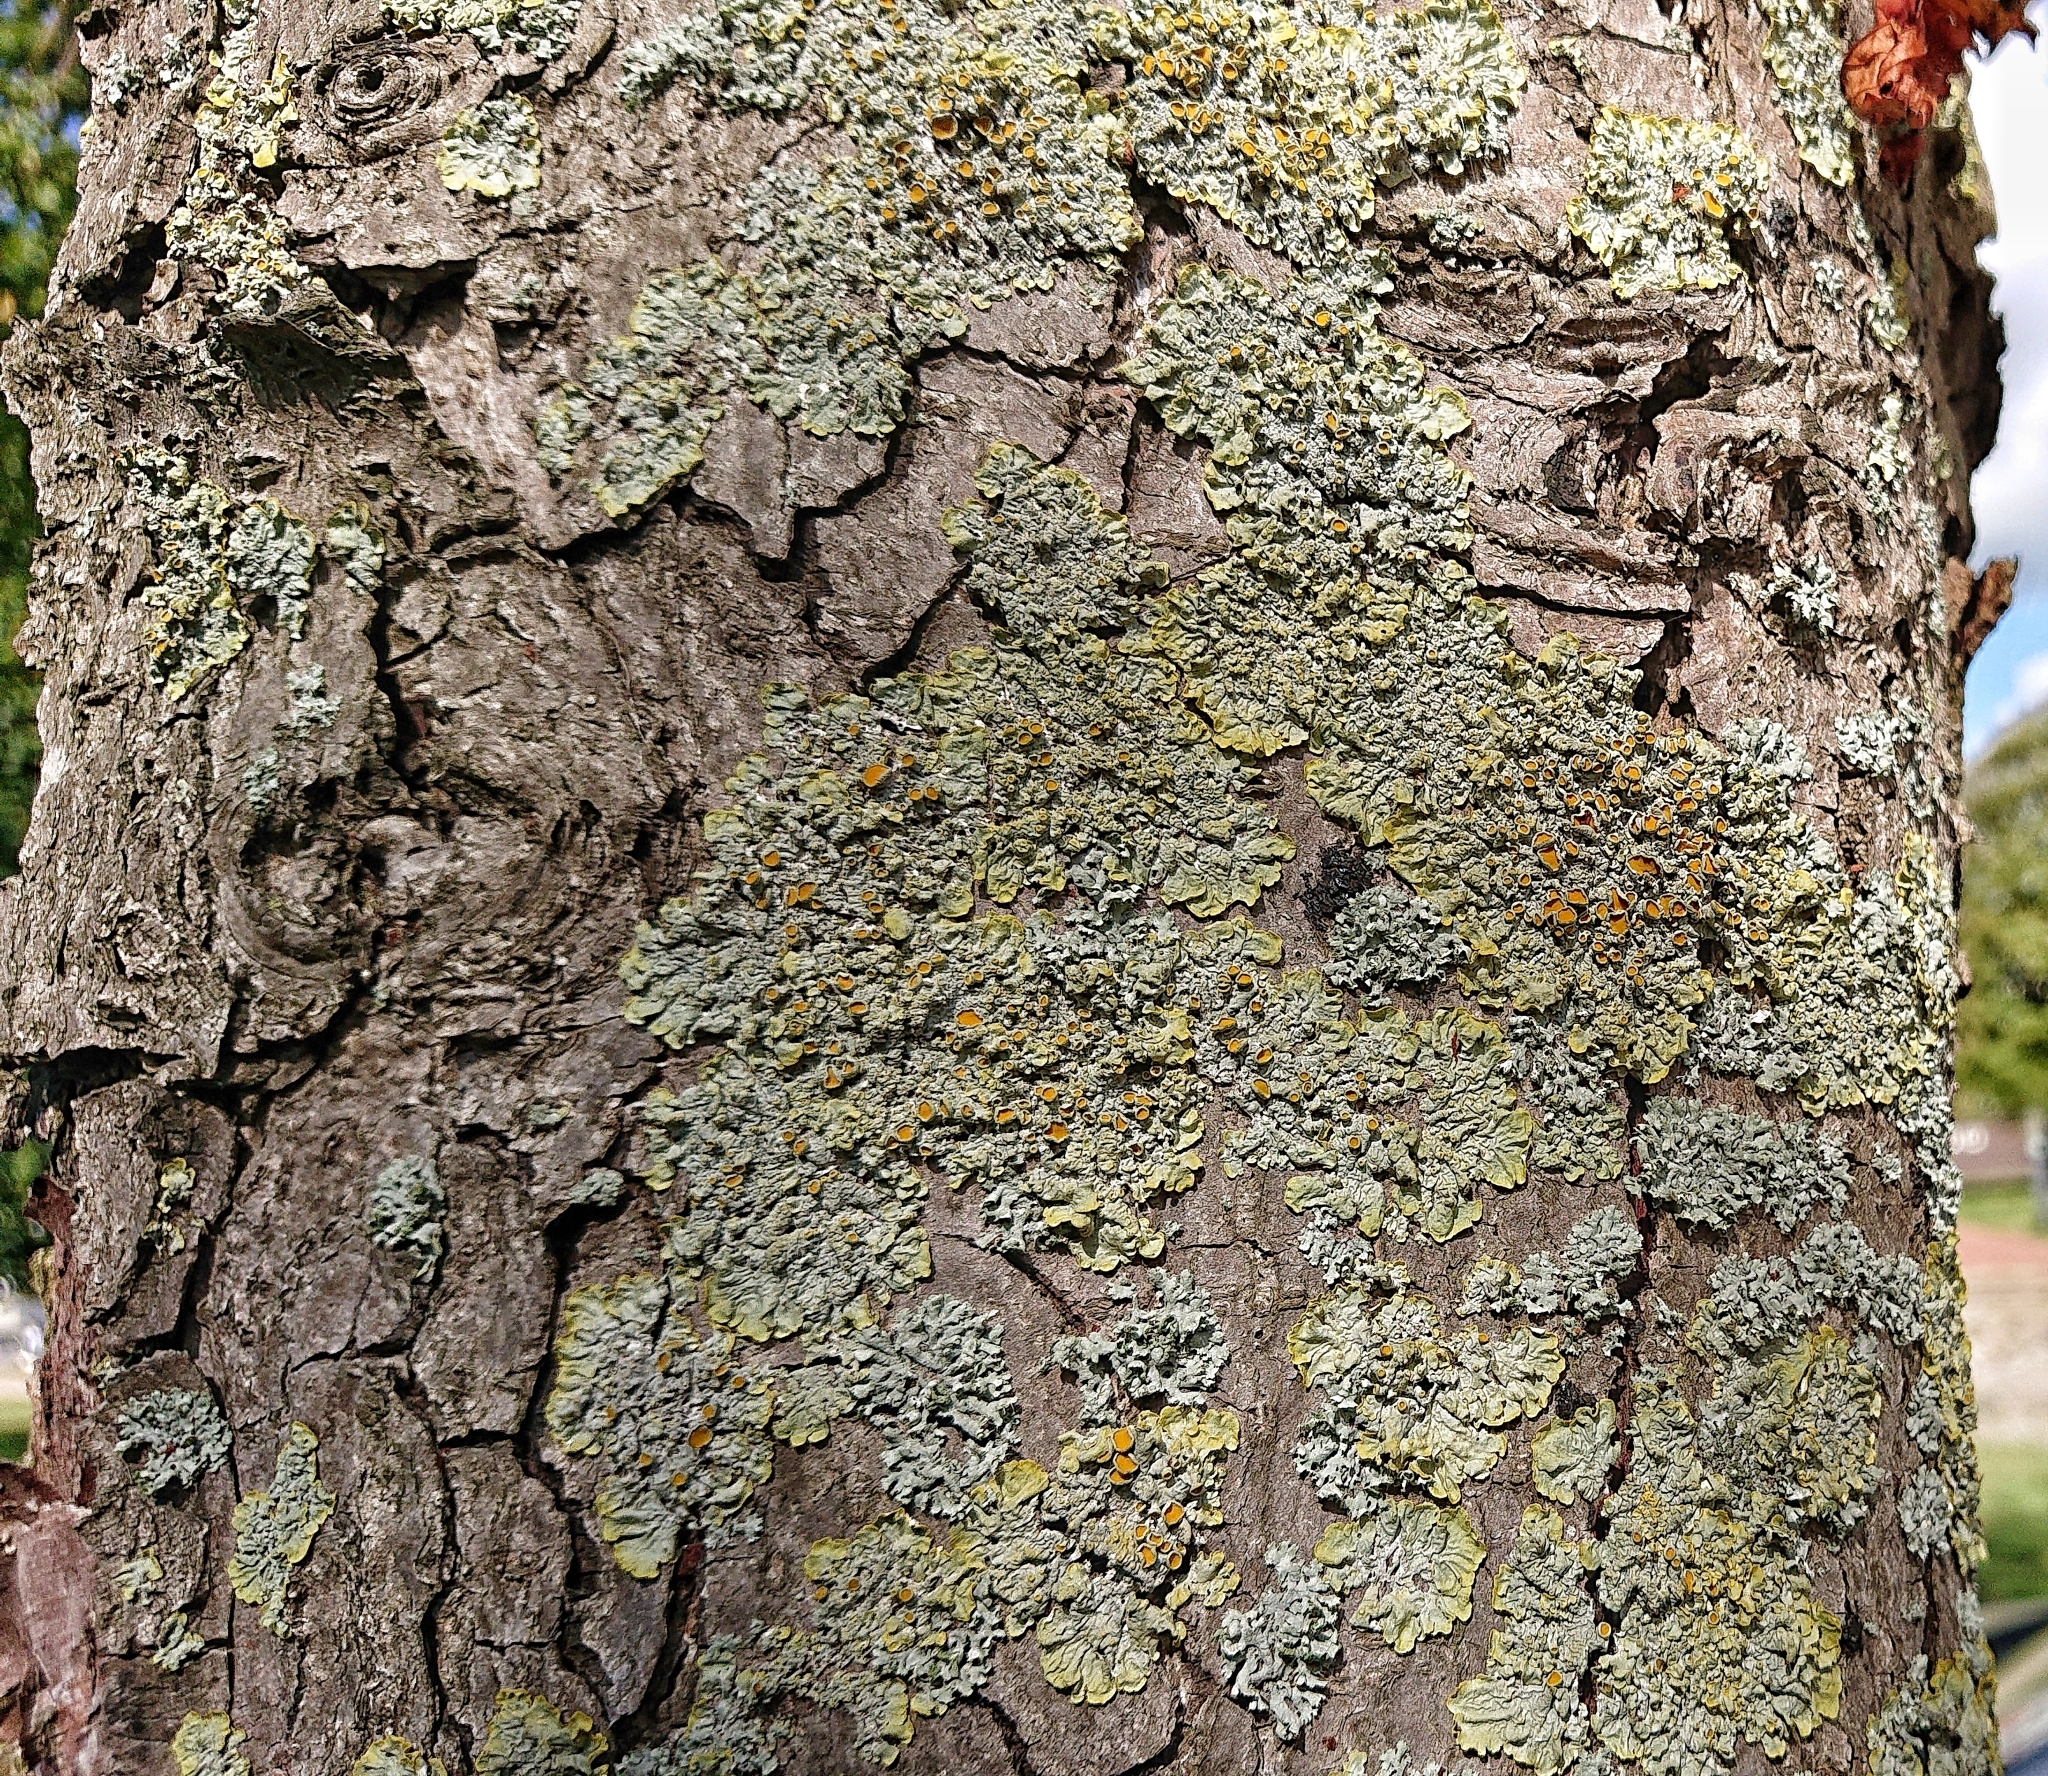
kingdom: Fungi
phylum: Ascomycota
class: Lecanoromycetes
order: Teloschistales
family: Teloschistaceae
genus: Xanthoria
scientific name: Xanthoria parietina
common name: Common orange lichen
